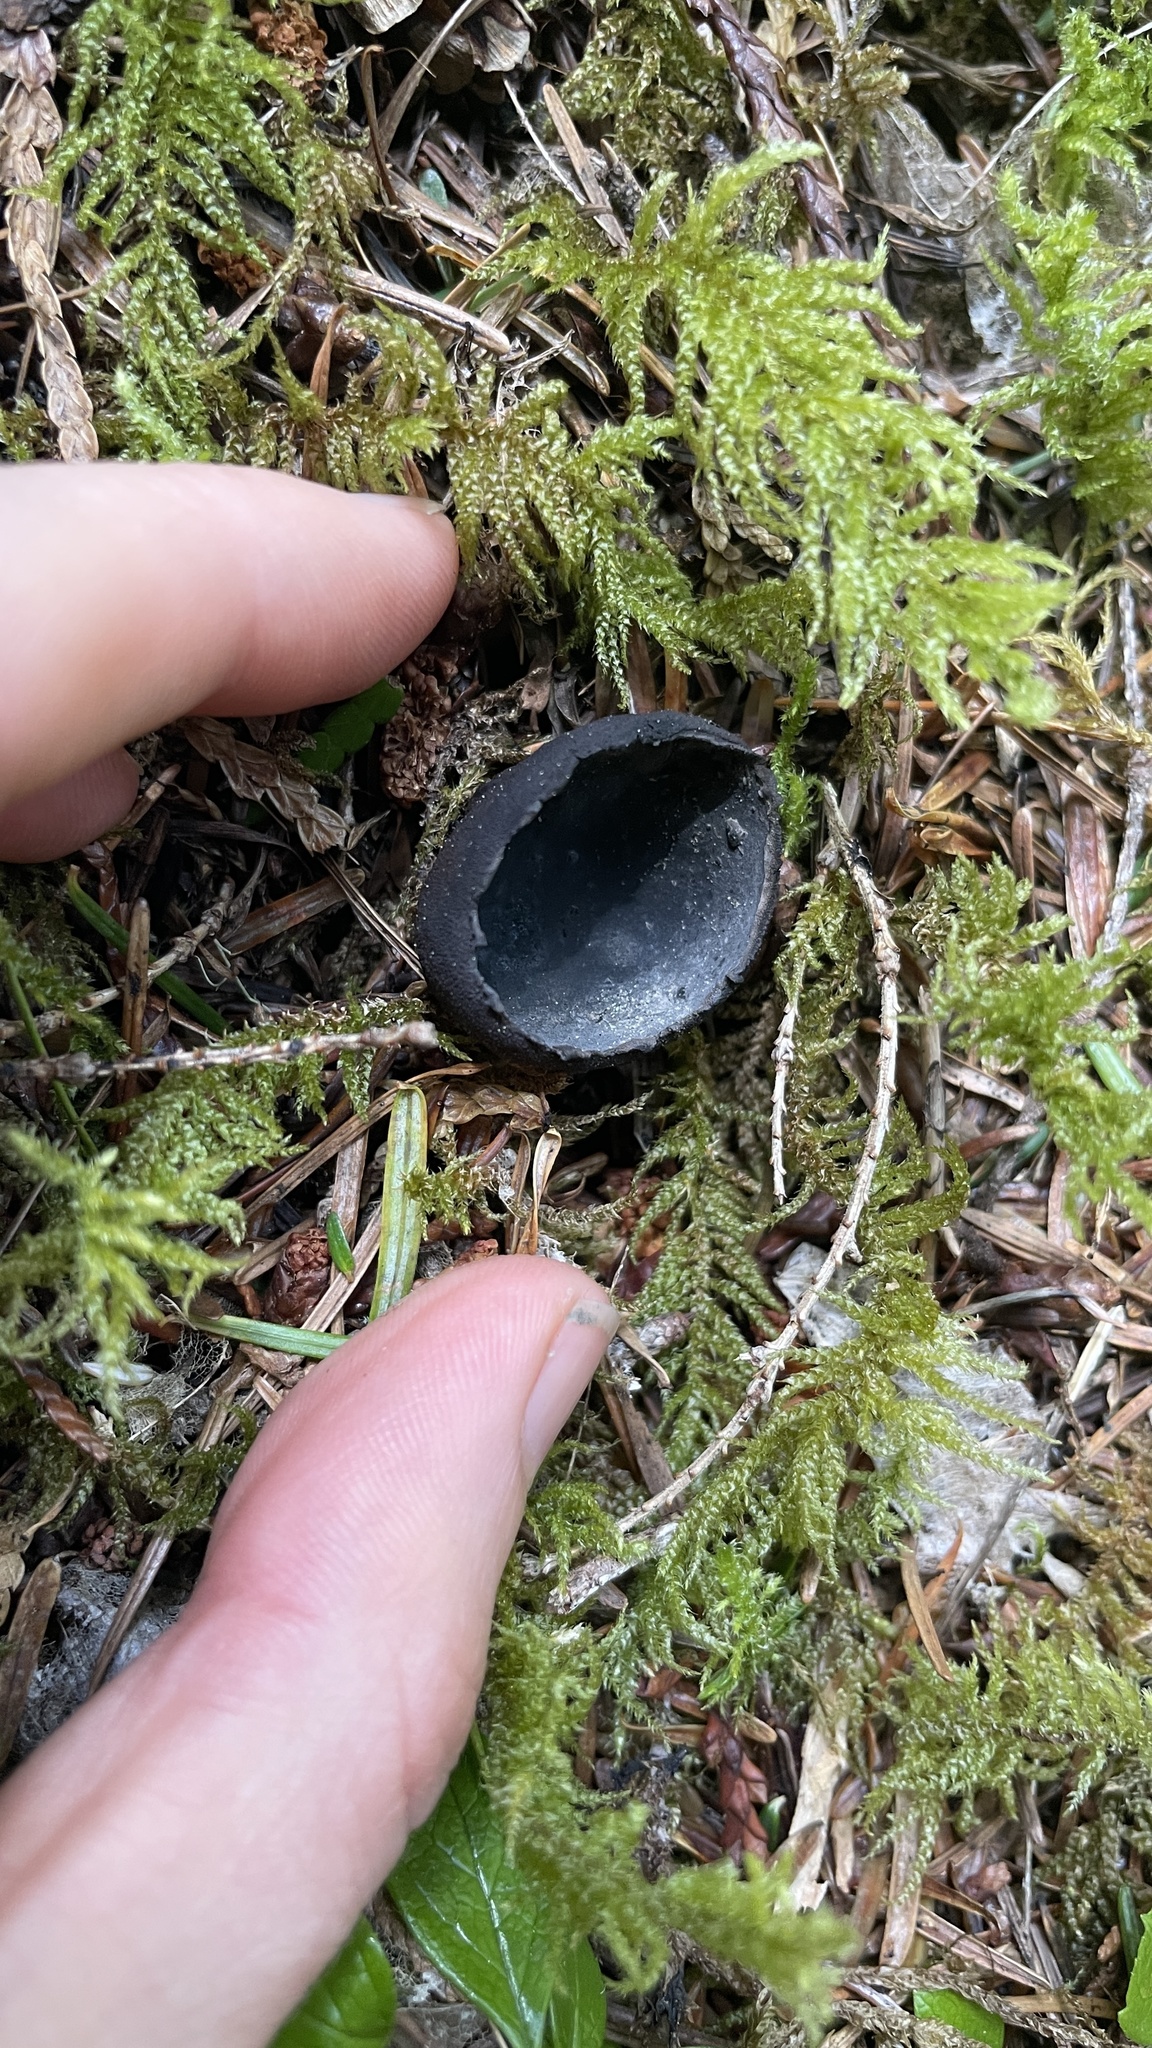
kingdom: Fungi
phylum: Ascomycota
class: Pezizomycetes
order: Pezizales
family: Sarcosomataceae
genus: Plectania
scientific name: Plectania milleri
